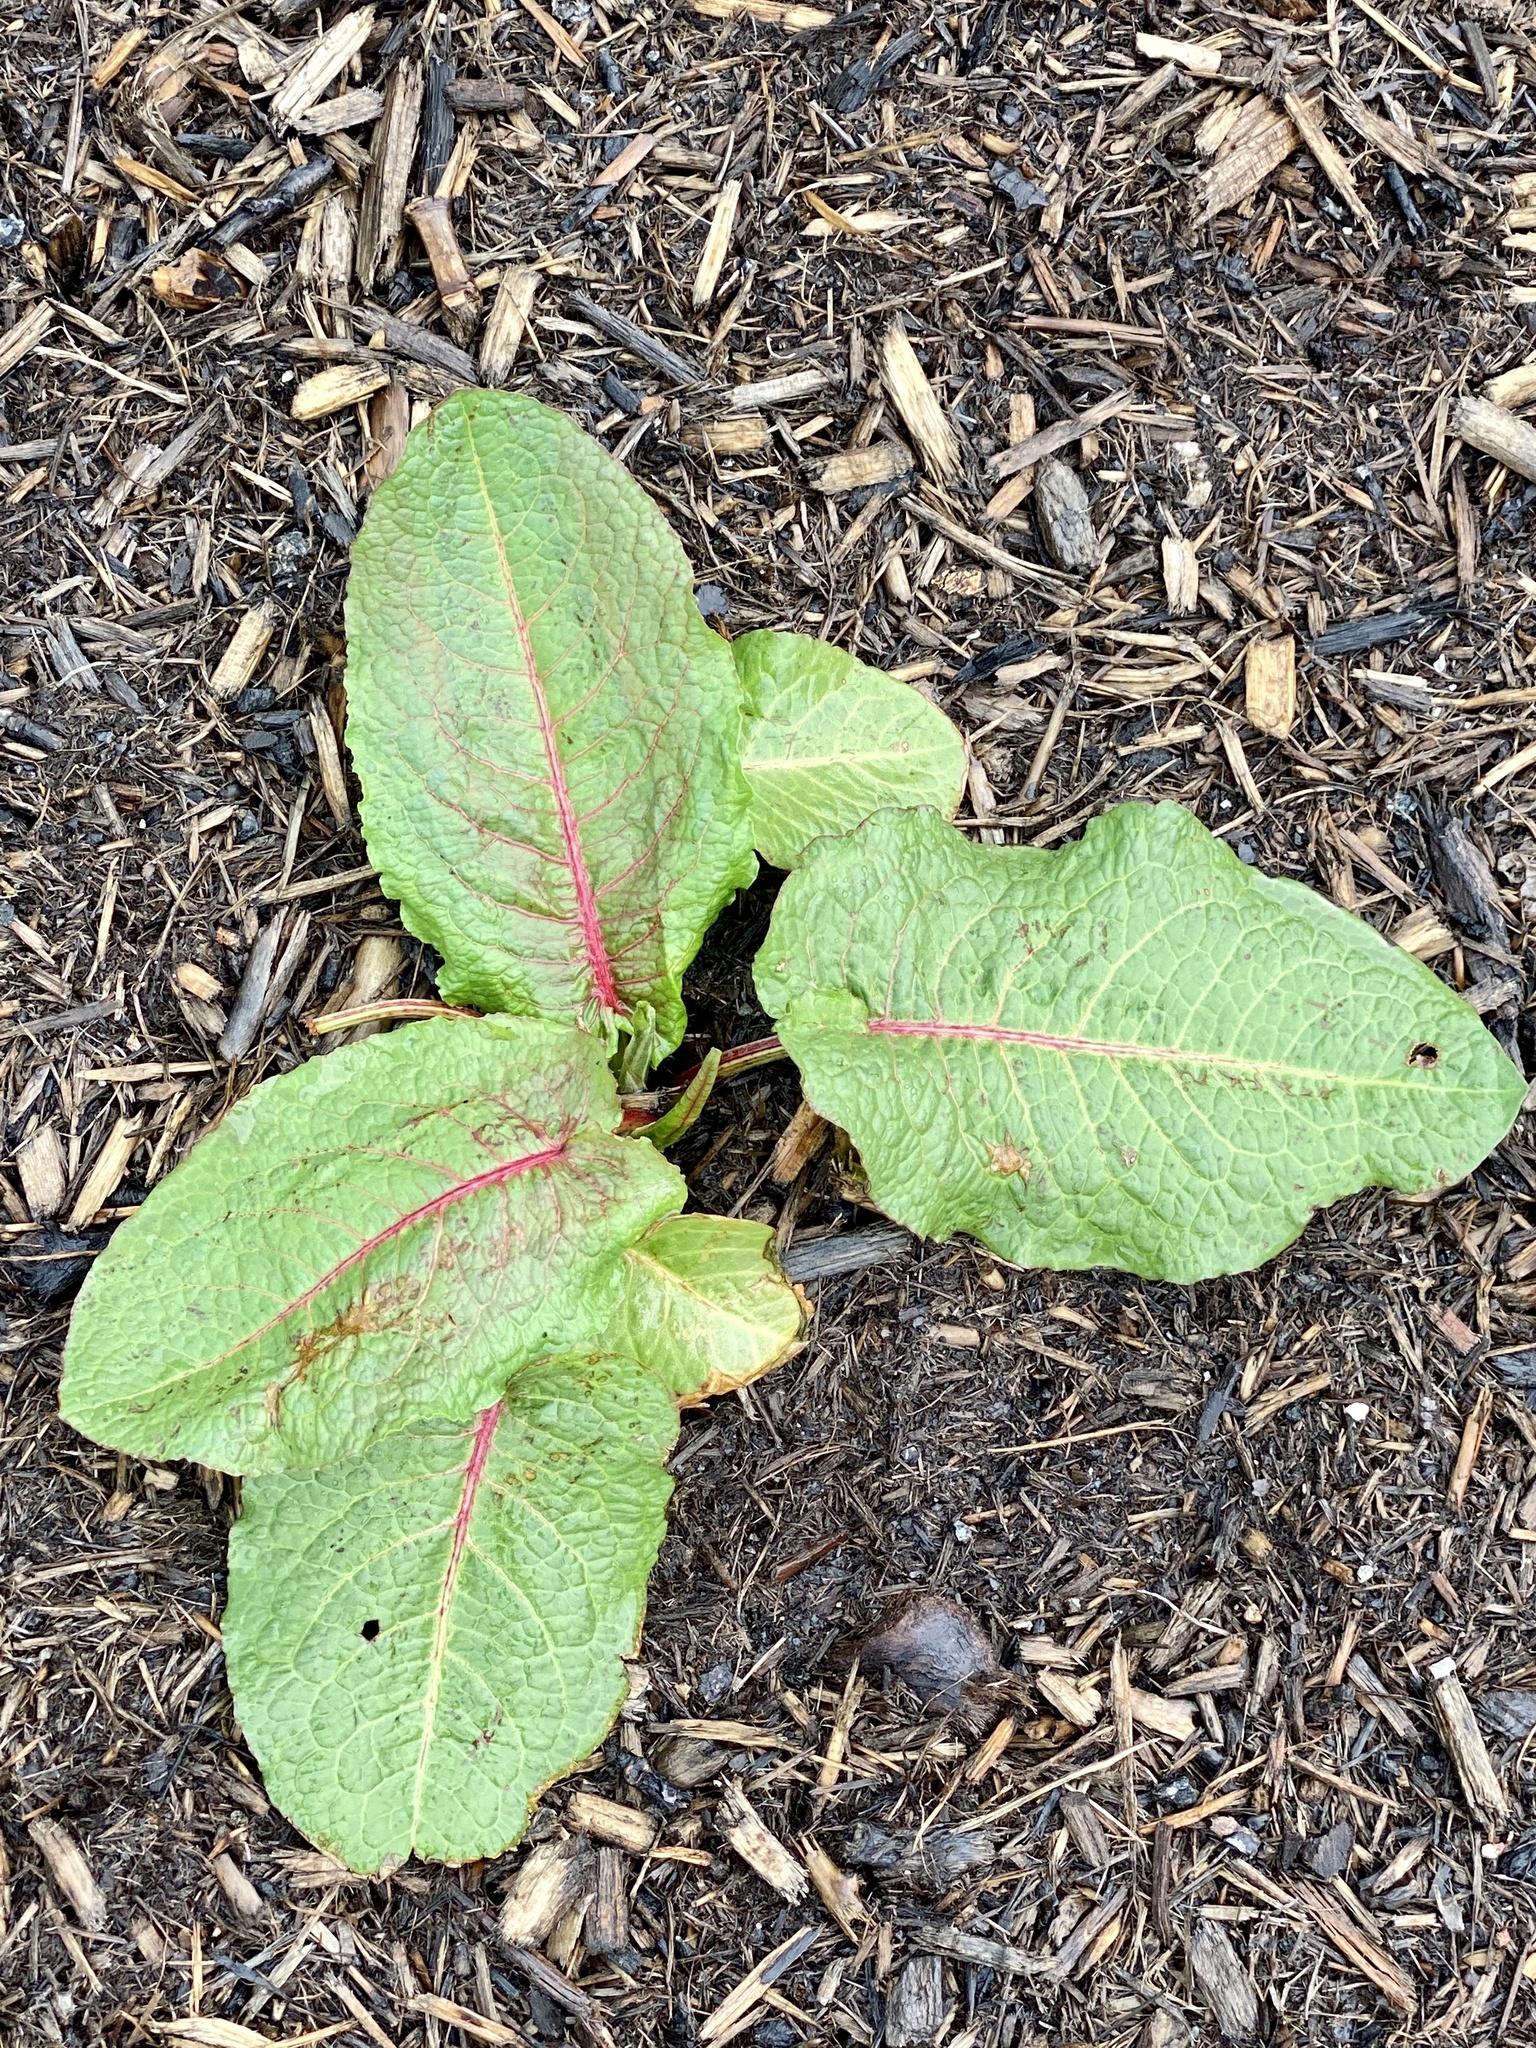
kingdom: Plantae
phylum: Tracheophyta
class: Magnoliopsida
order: Caryophyllales
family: Polygonaceae
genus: Rumex
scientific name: Rumex obtusifolius
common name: Bitter dock
